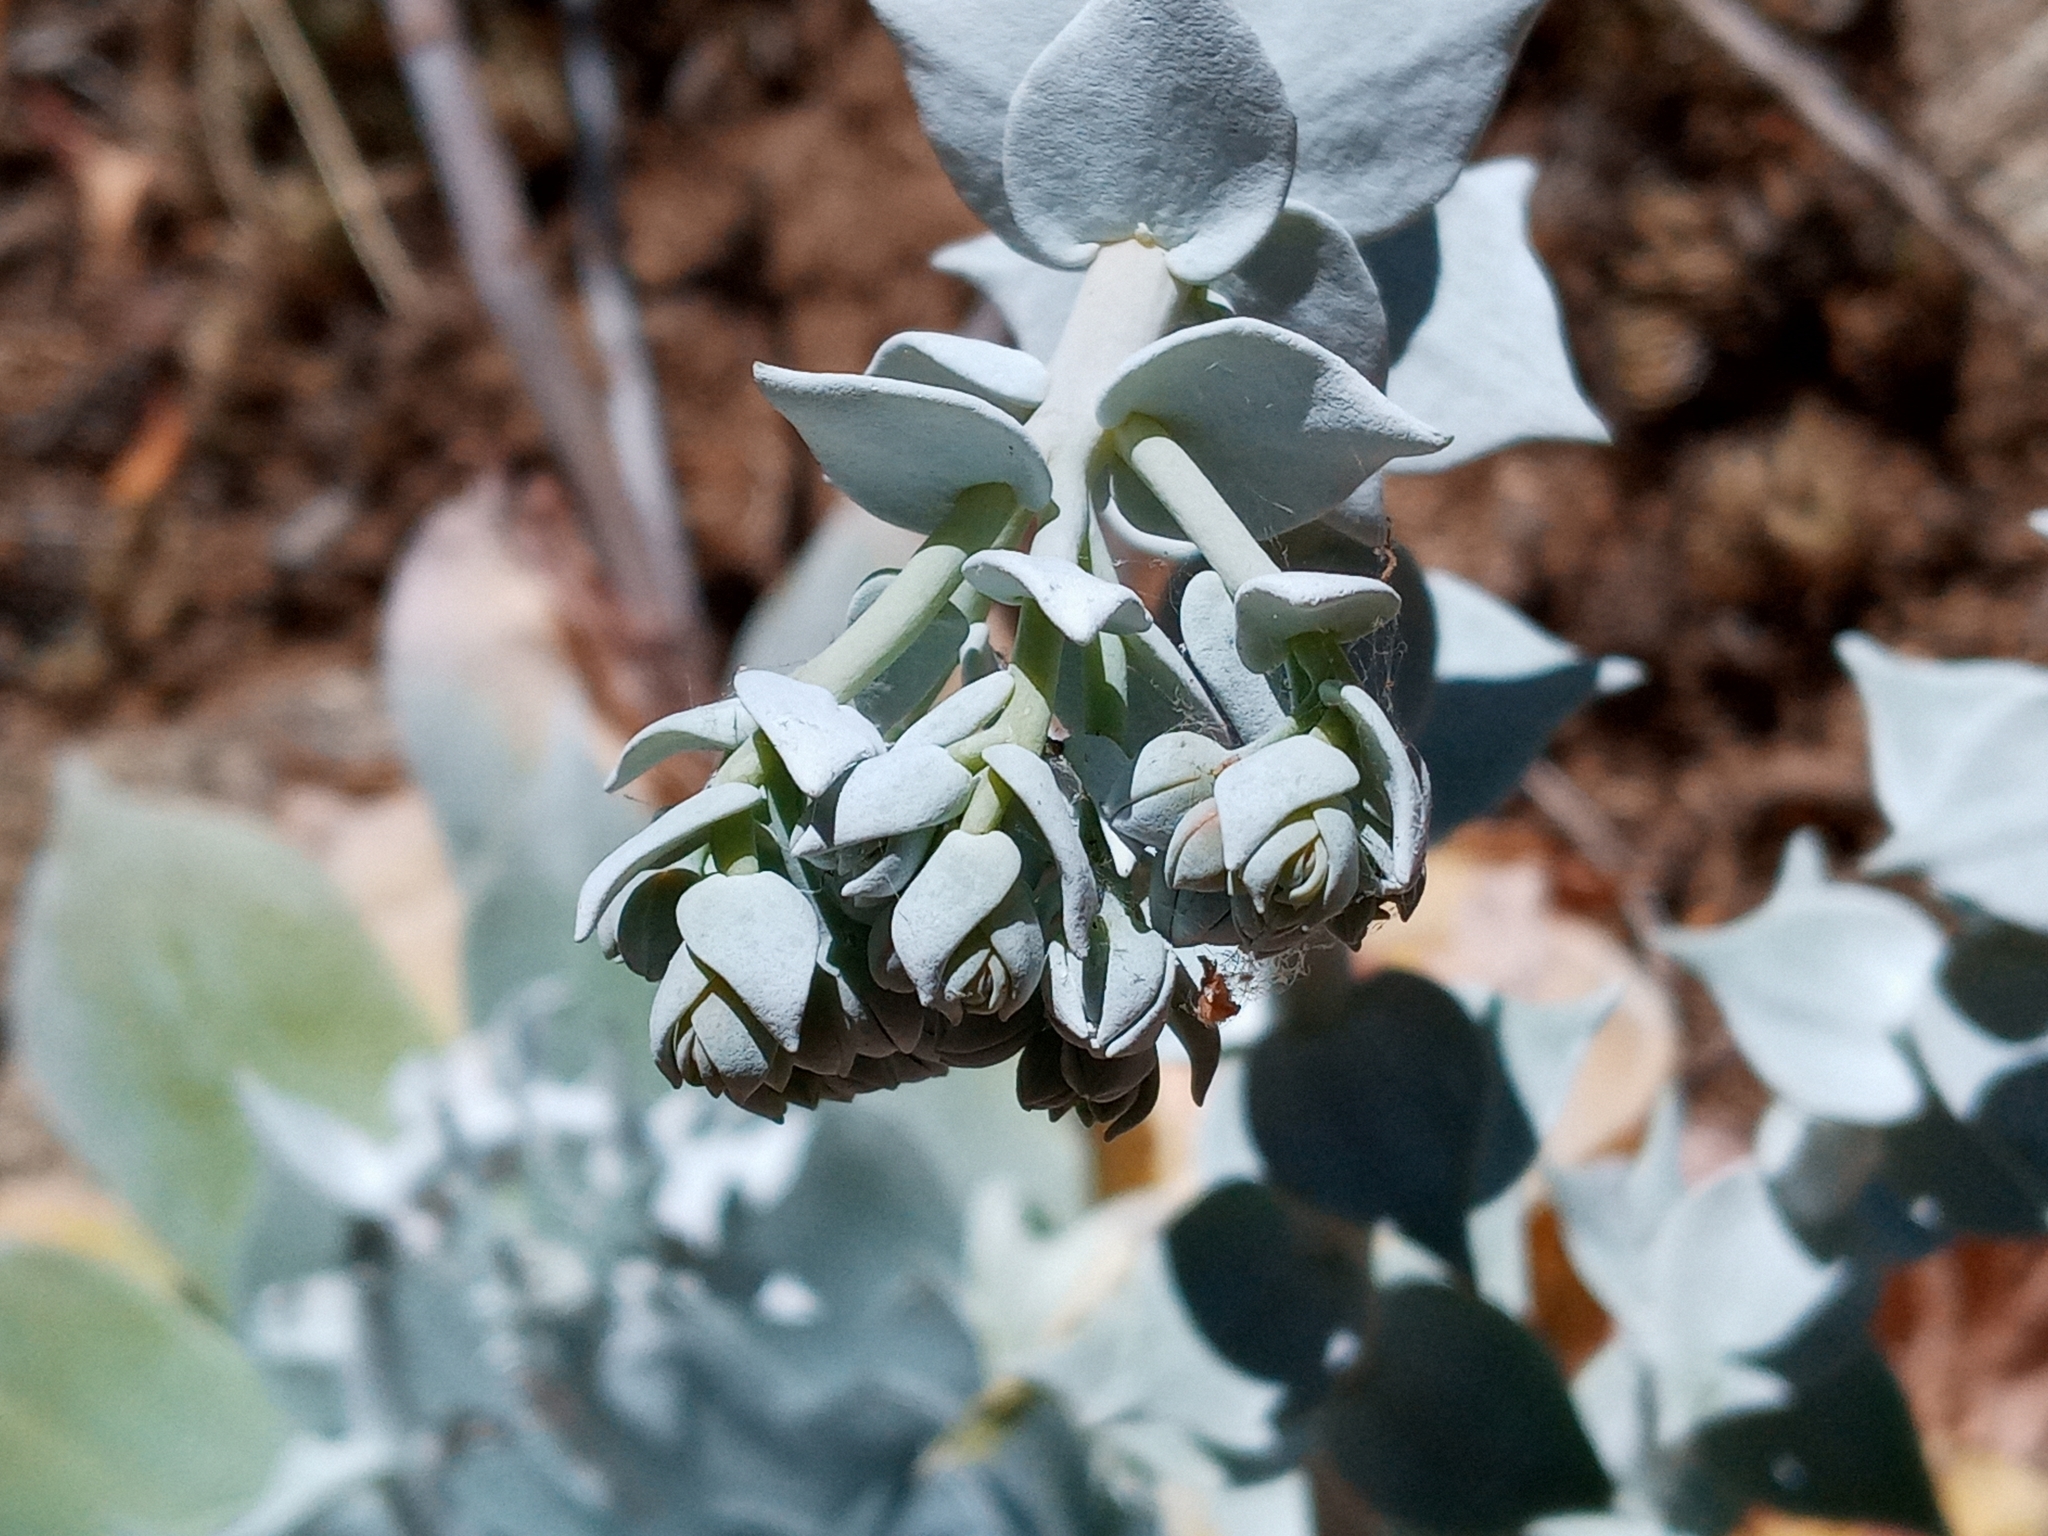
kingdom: Plantae
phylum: Tracheophyta
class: Magnoliopsida
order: Saxifragales
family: Crassulaceae
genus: Dudleya
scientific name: Dudleya pulverulenta
